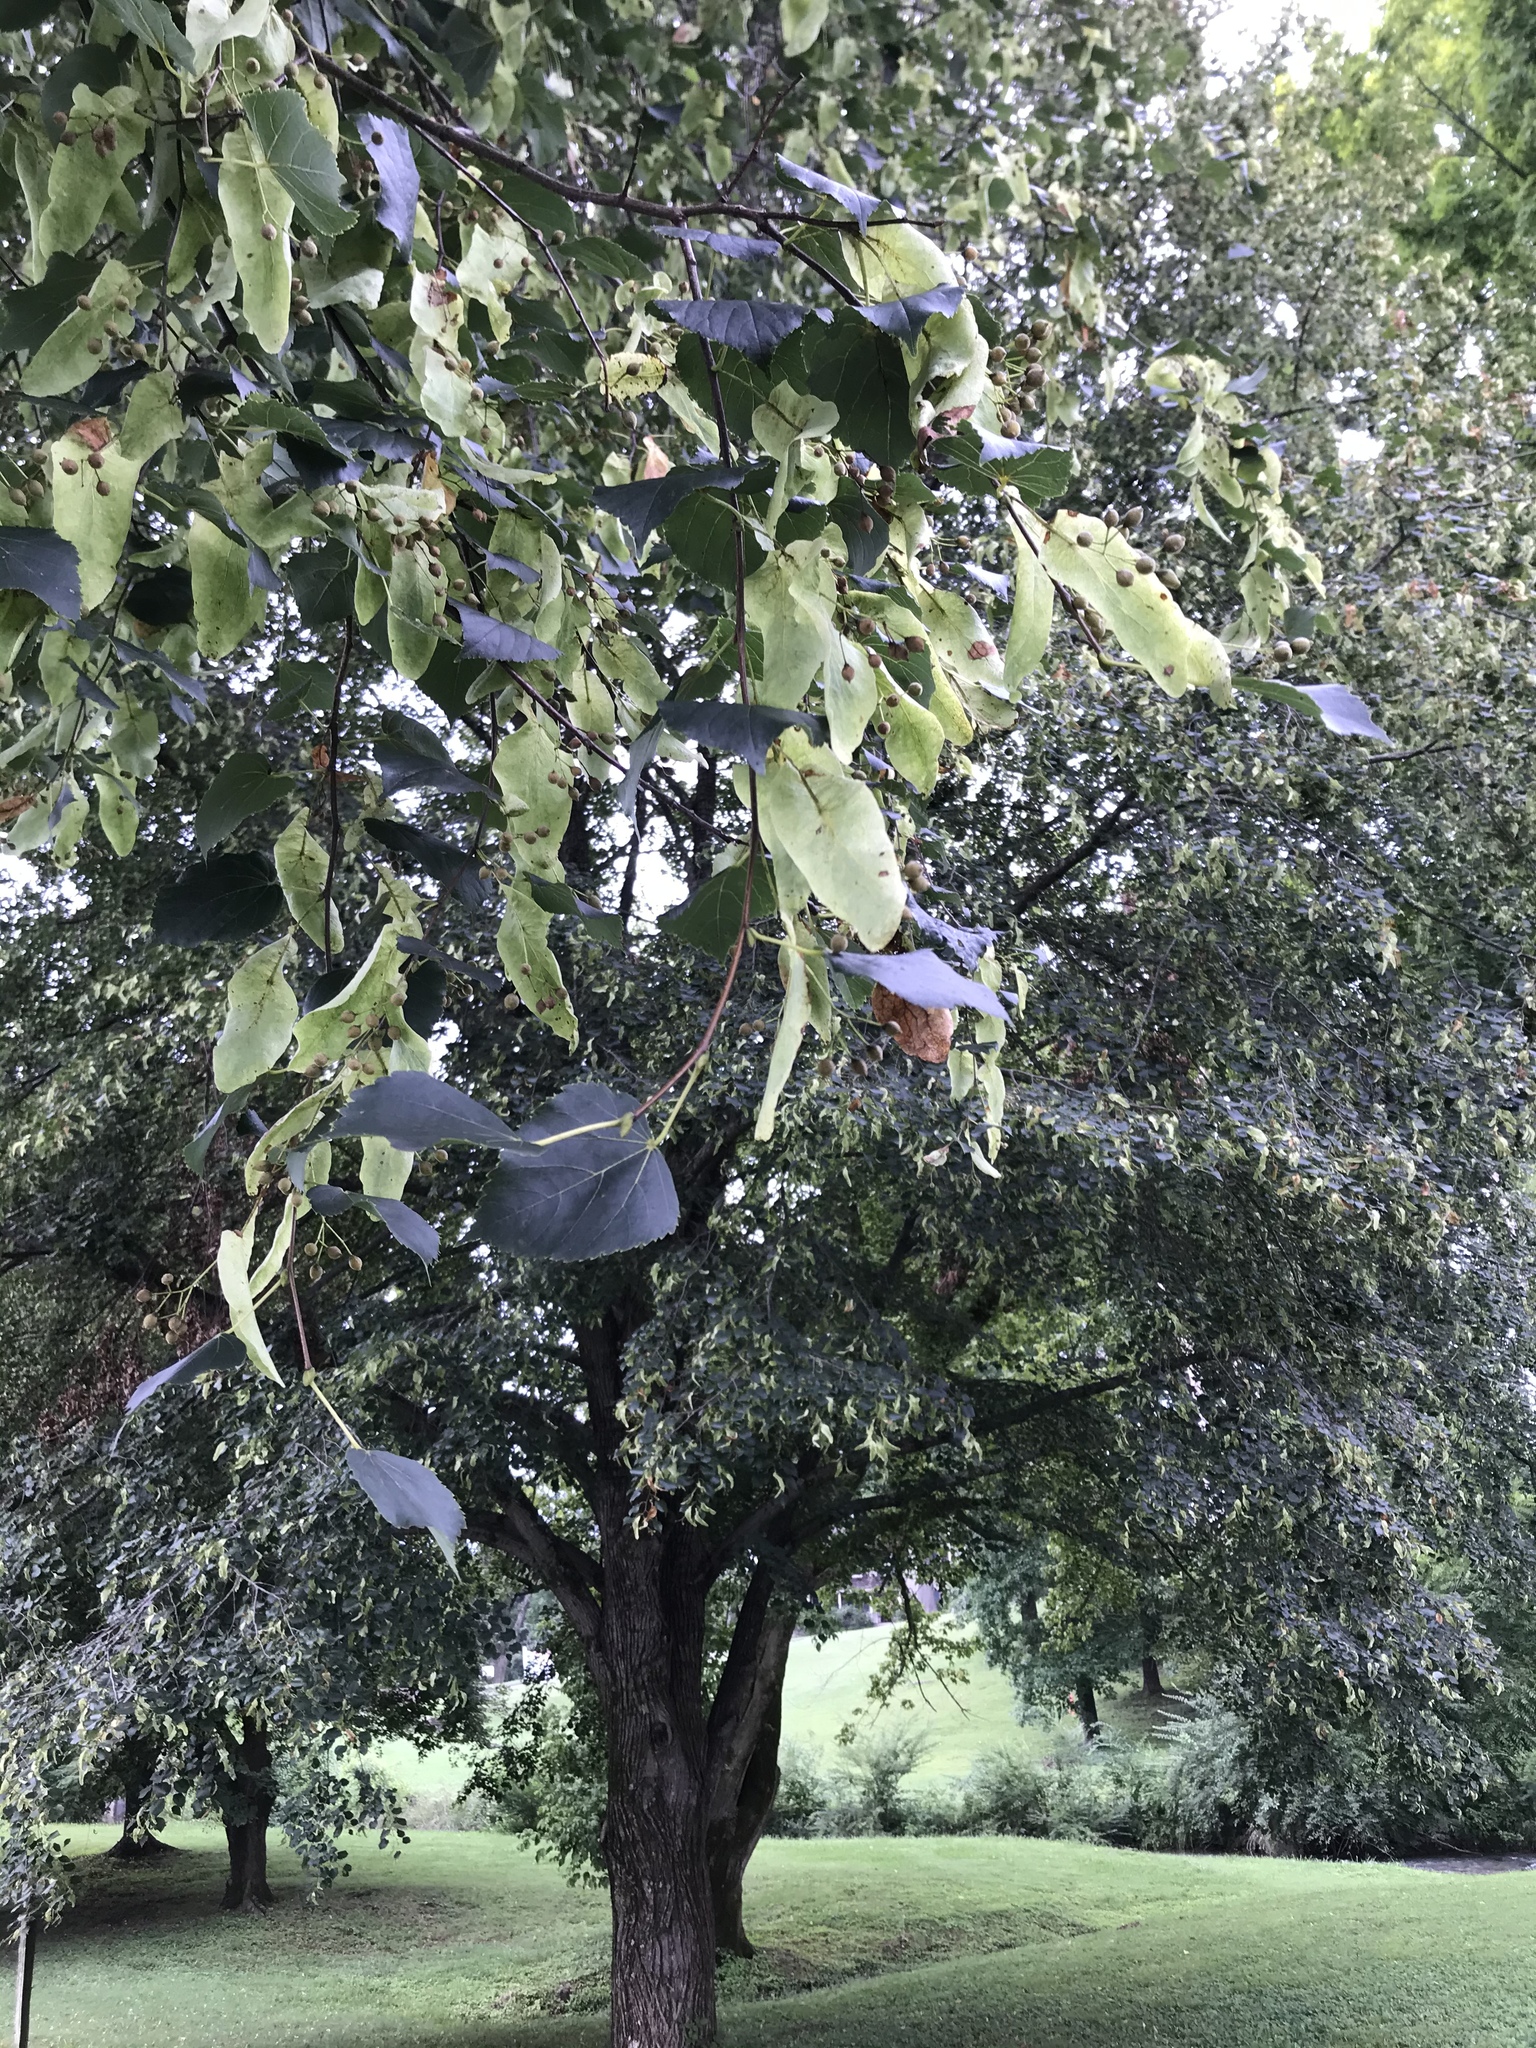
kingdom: Plantae
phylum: Tracheophyta
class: Magnoliopsida
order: Malvales
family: Malvaceae
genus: Tilia
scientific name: Tilia americana
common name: Basswood
